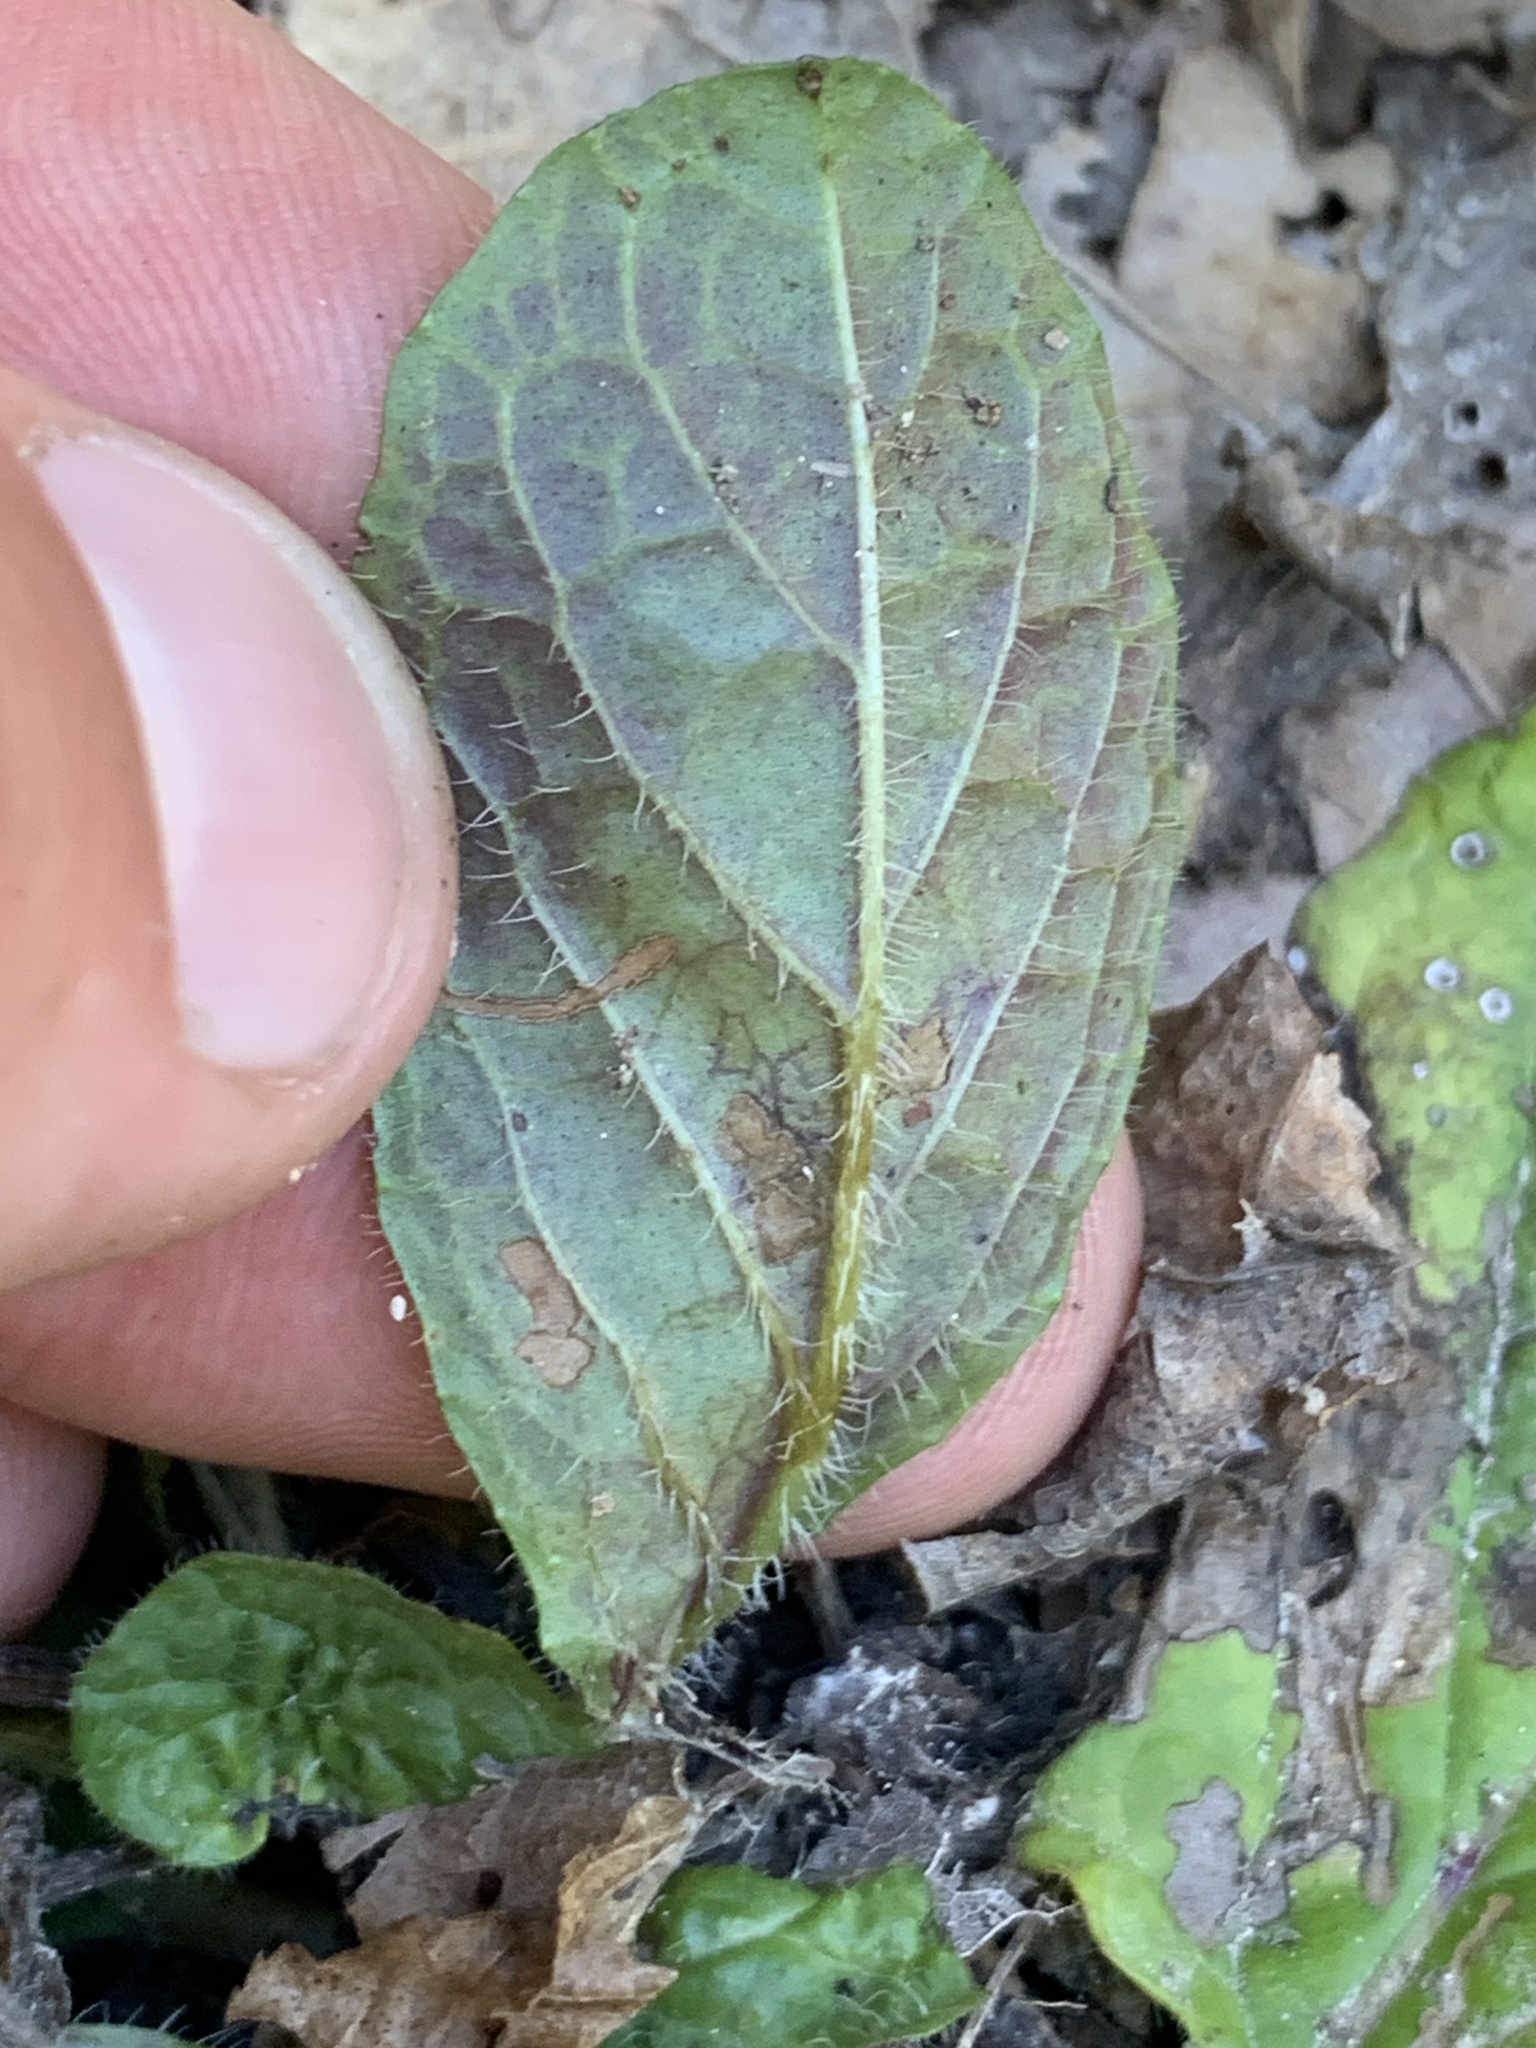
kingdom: Plantae
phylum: Tracheophyta
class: Magnoliopsida
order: Lamiales
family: Lamiaceae
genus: Salvia
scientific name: Salvia lyrata
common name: Cancerweed
